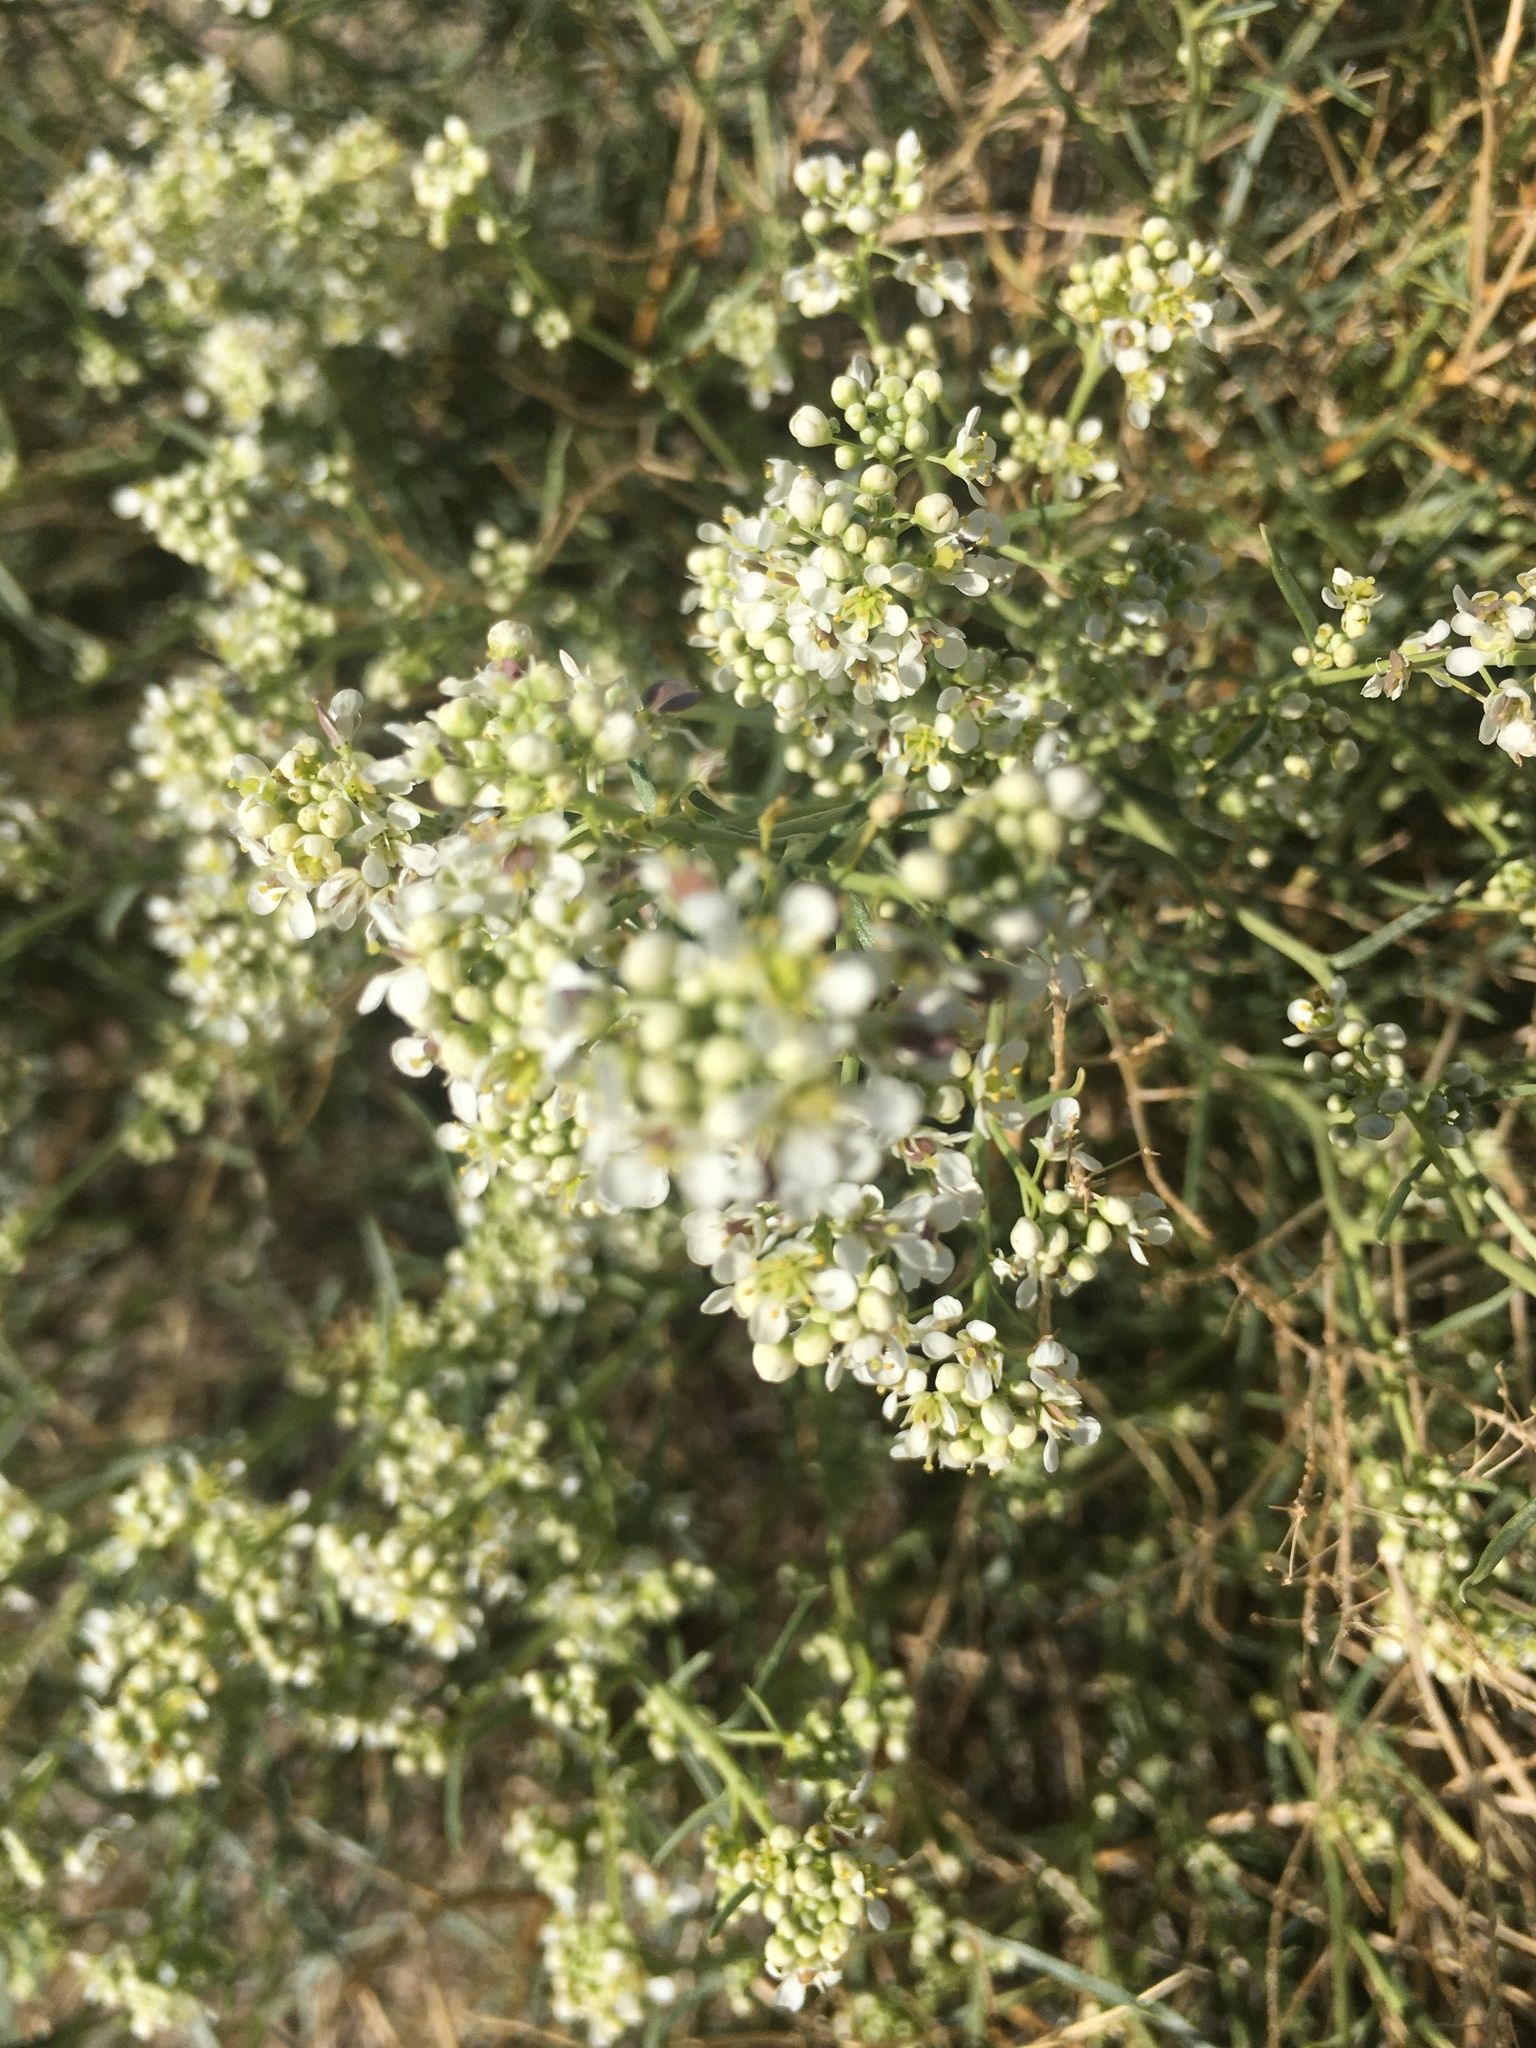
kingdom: Plantae
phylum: Tracheophyta
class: Magnoliopsida
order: Brassicales
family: Brassicaceae
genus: Lepidium
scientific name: Lepidium fremontii
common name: Fremont's pepperwort
